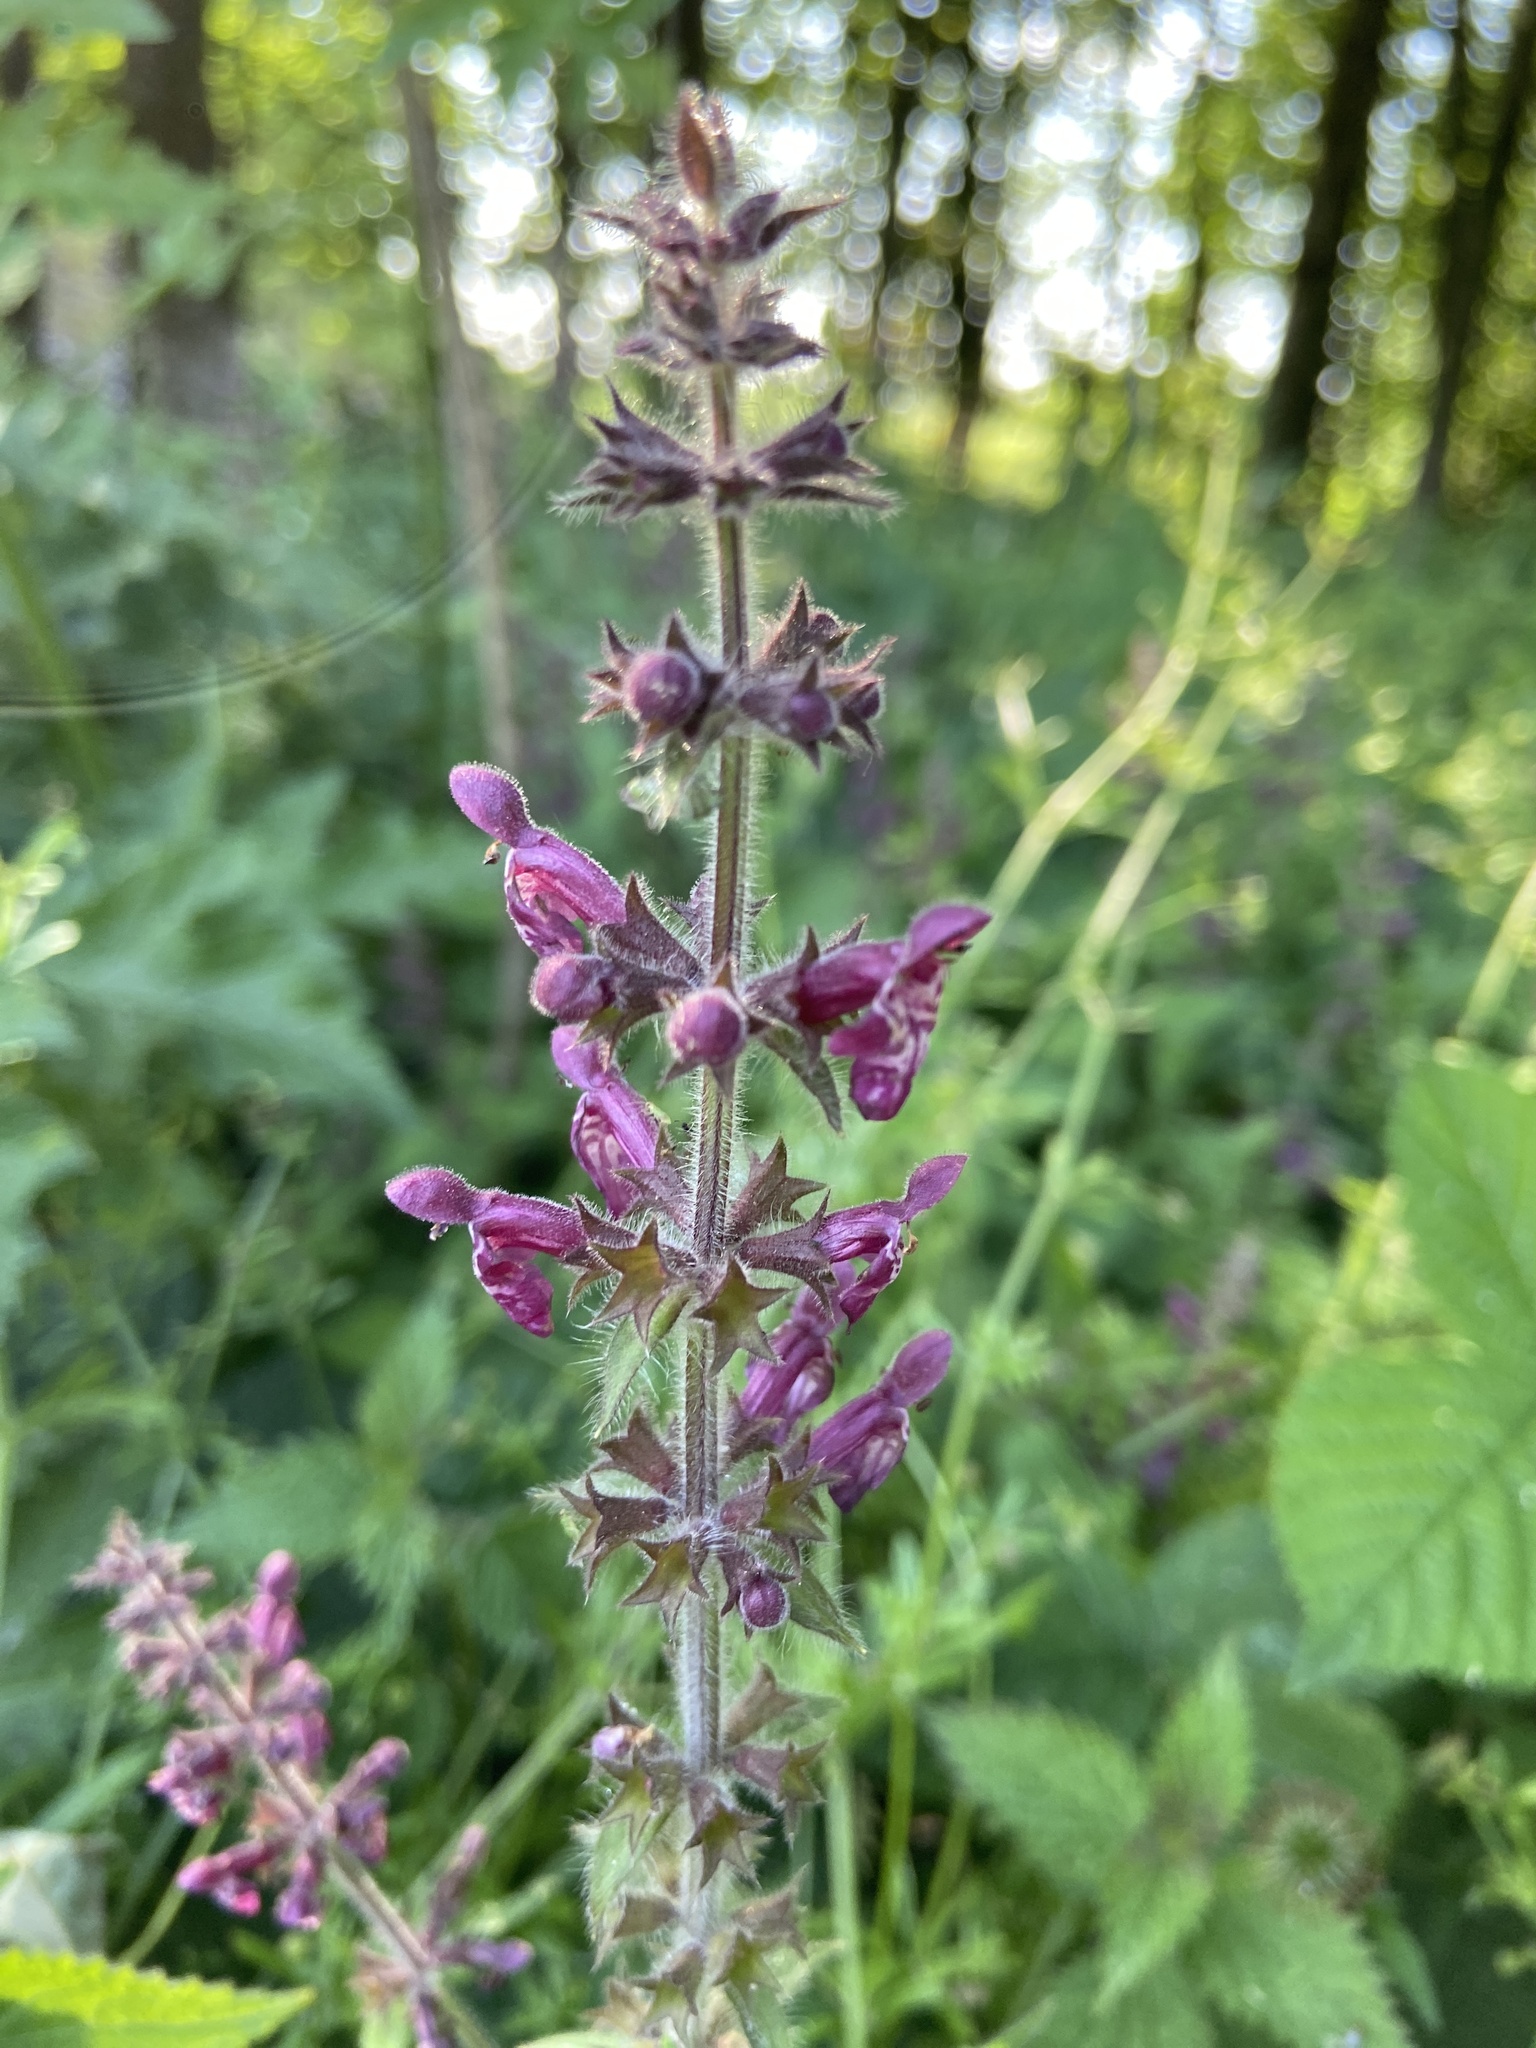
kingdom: Plantae
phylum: Tracheophyta
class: Magnoliopsida
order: Lamiales
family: Lamiaceae
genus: Stachys
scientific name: Stachys sylvatica
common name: Hedge woundwort
